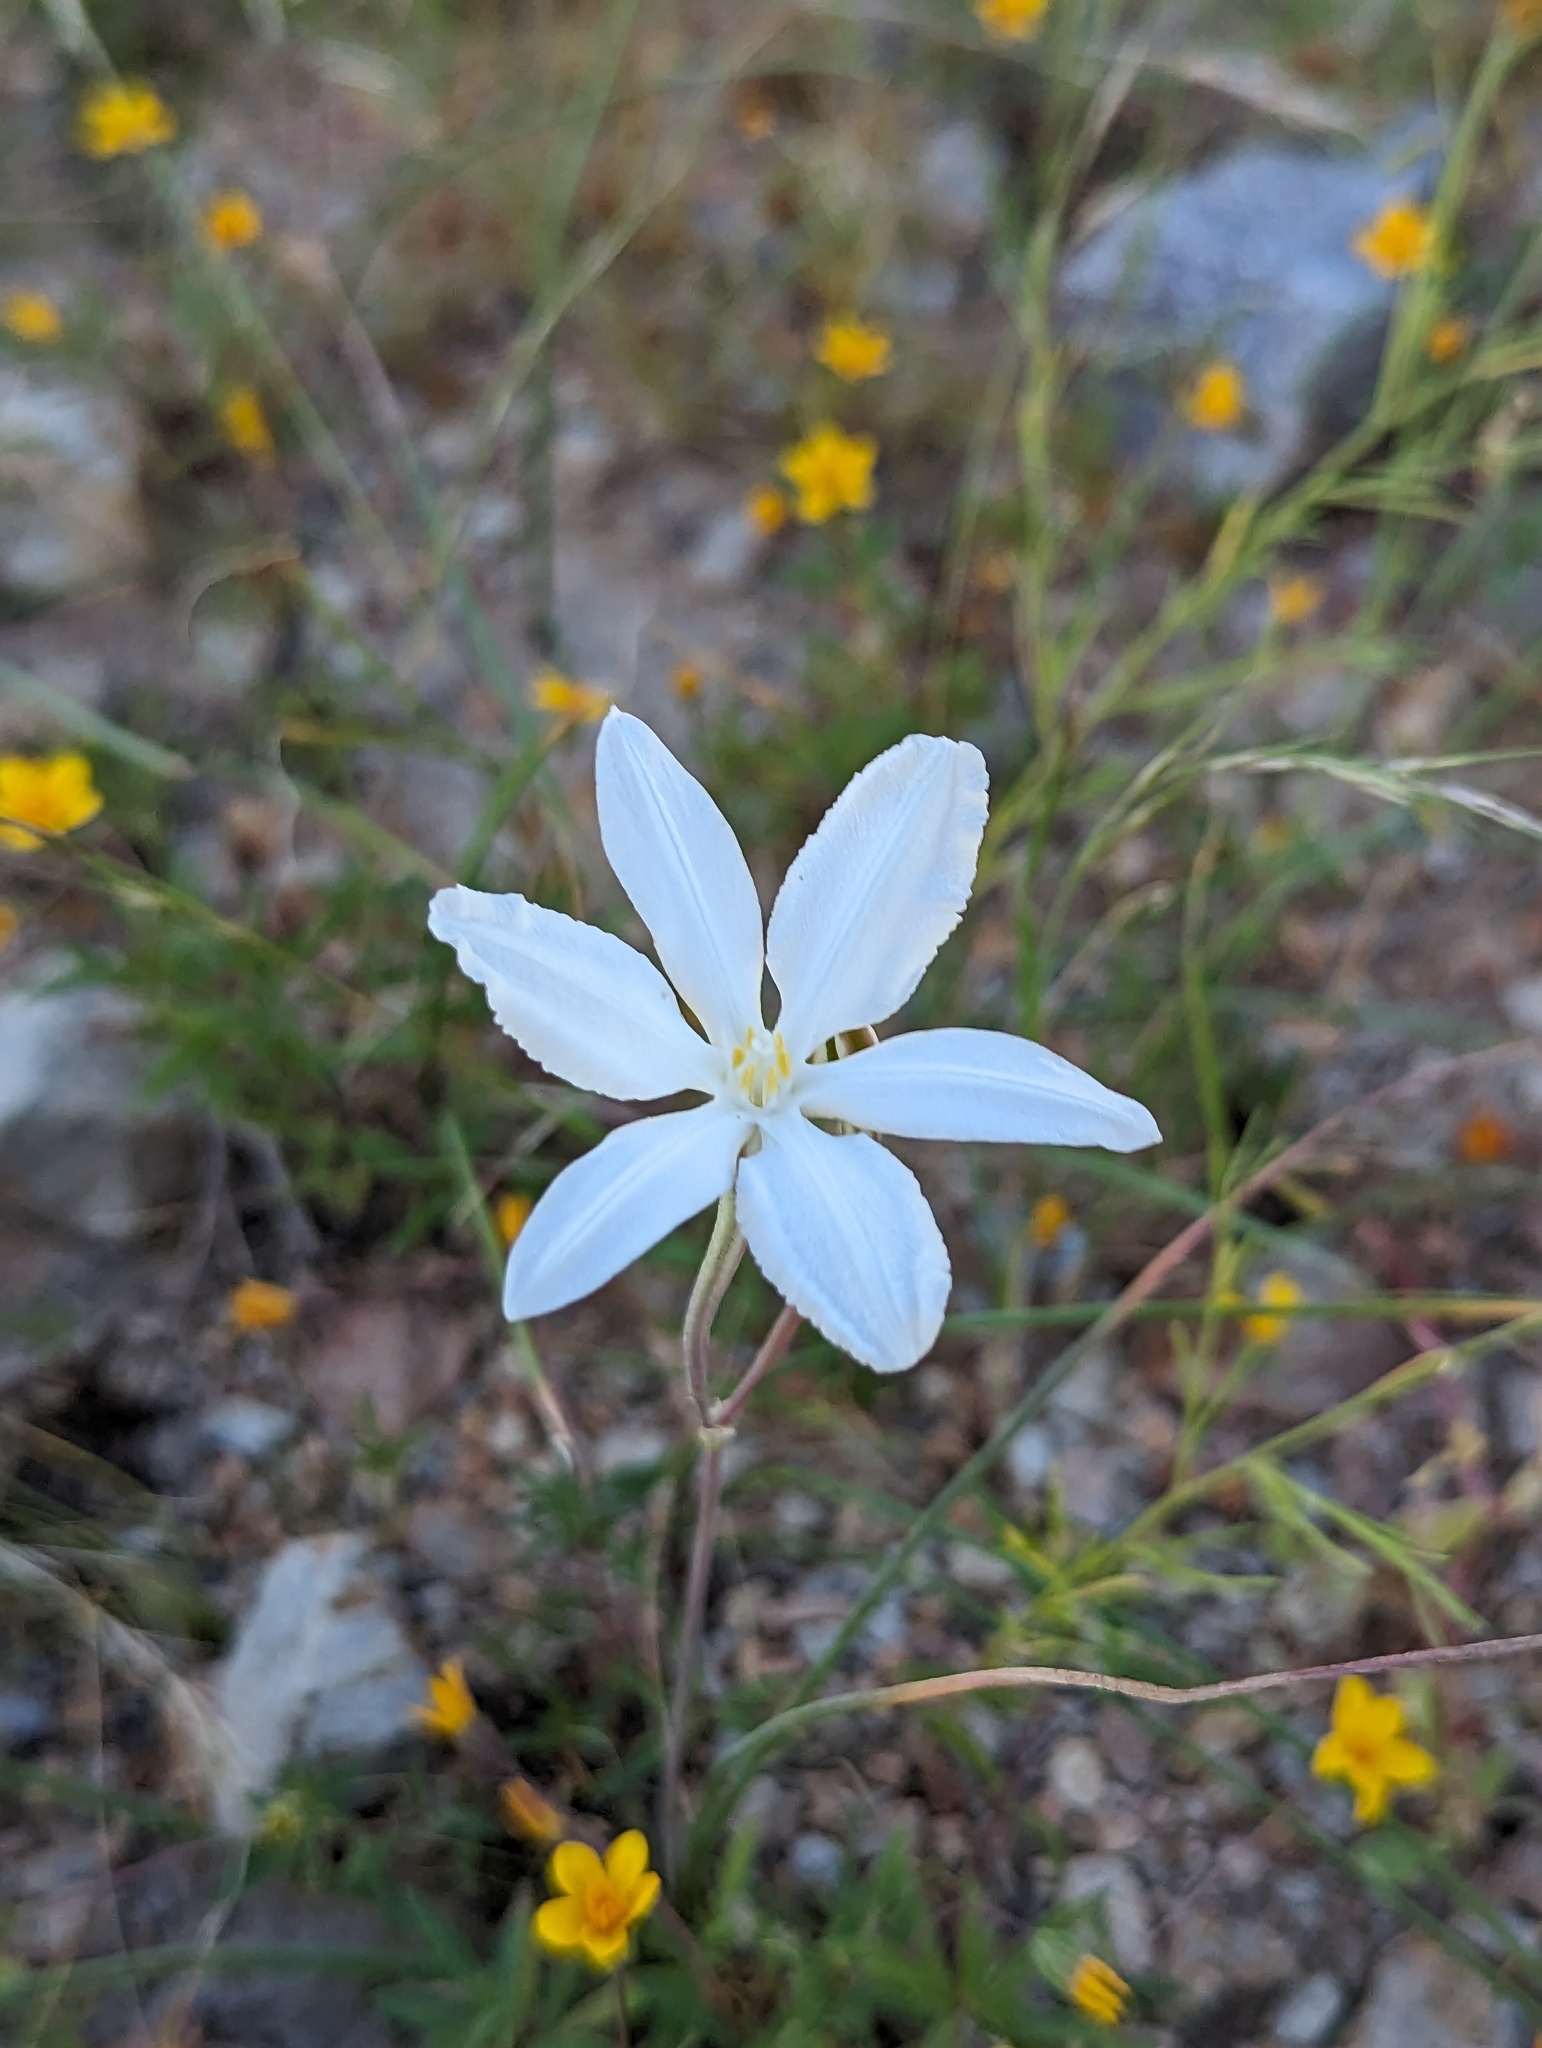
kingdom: Plantae
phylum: Tracheophyta
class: Liliopsida
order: Asparagales
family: Asparagaceae
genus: Milla
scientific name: Milla
